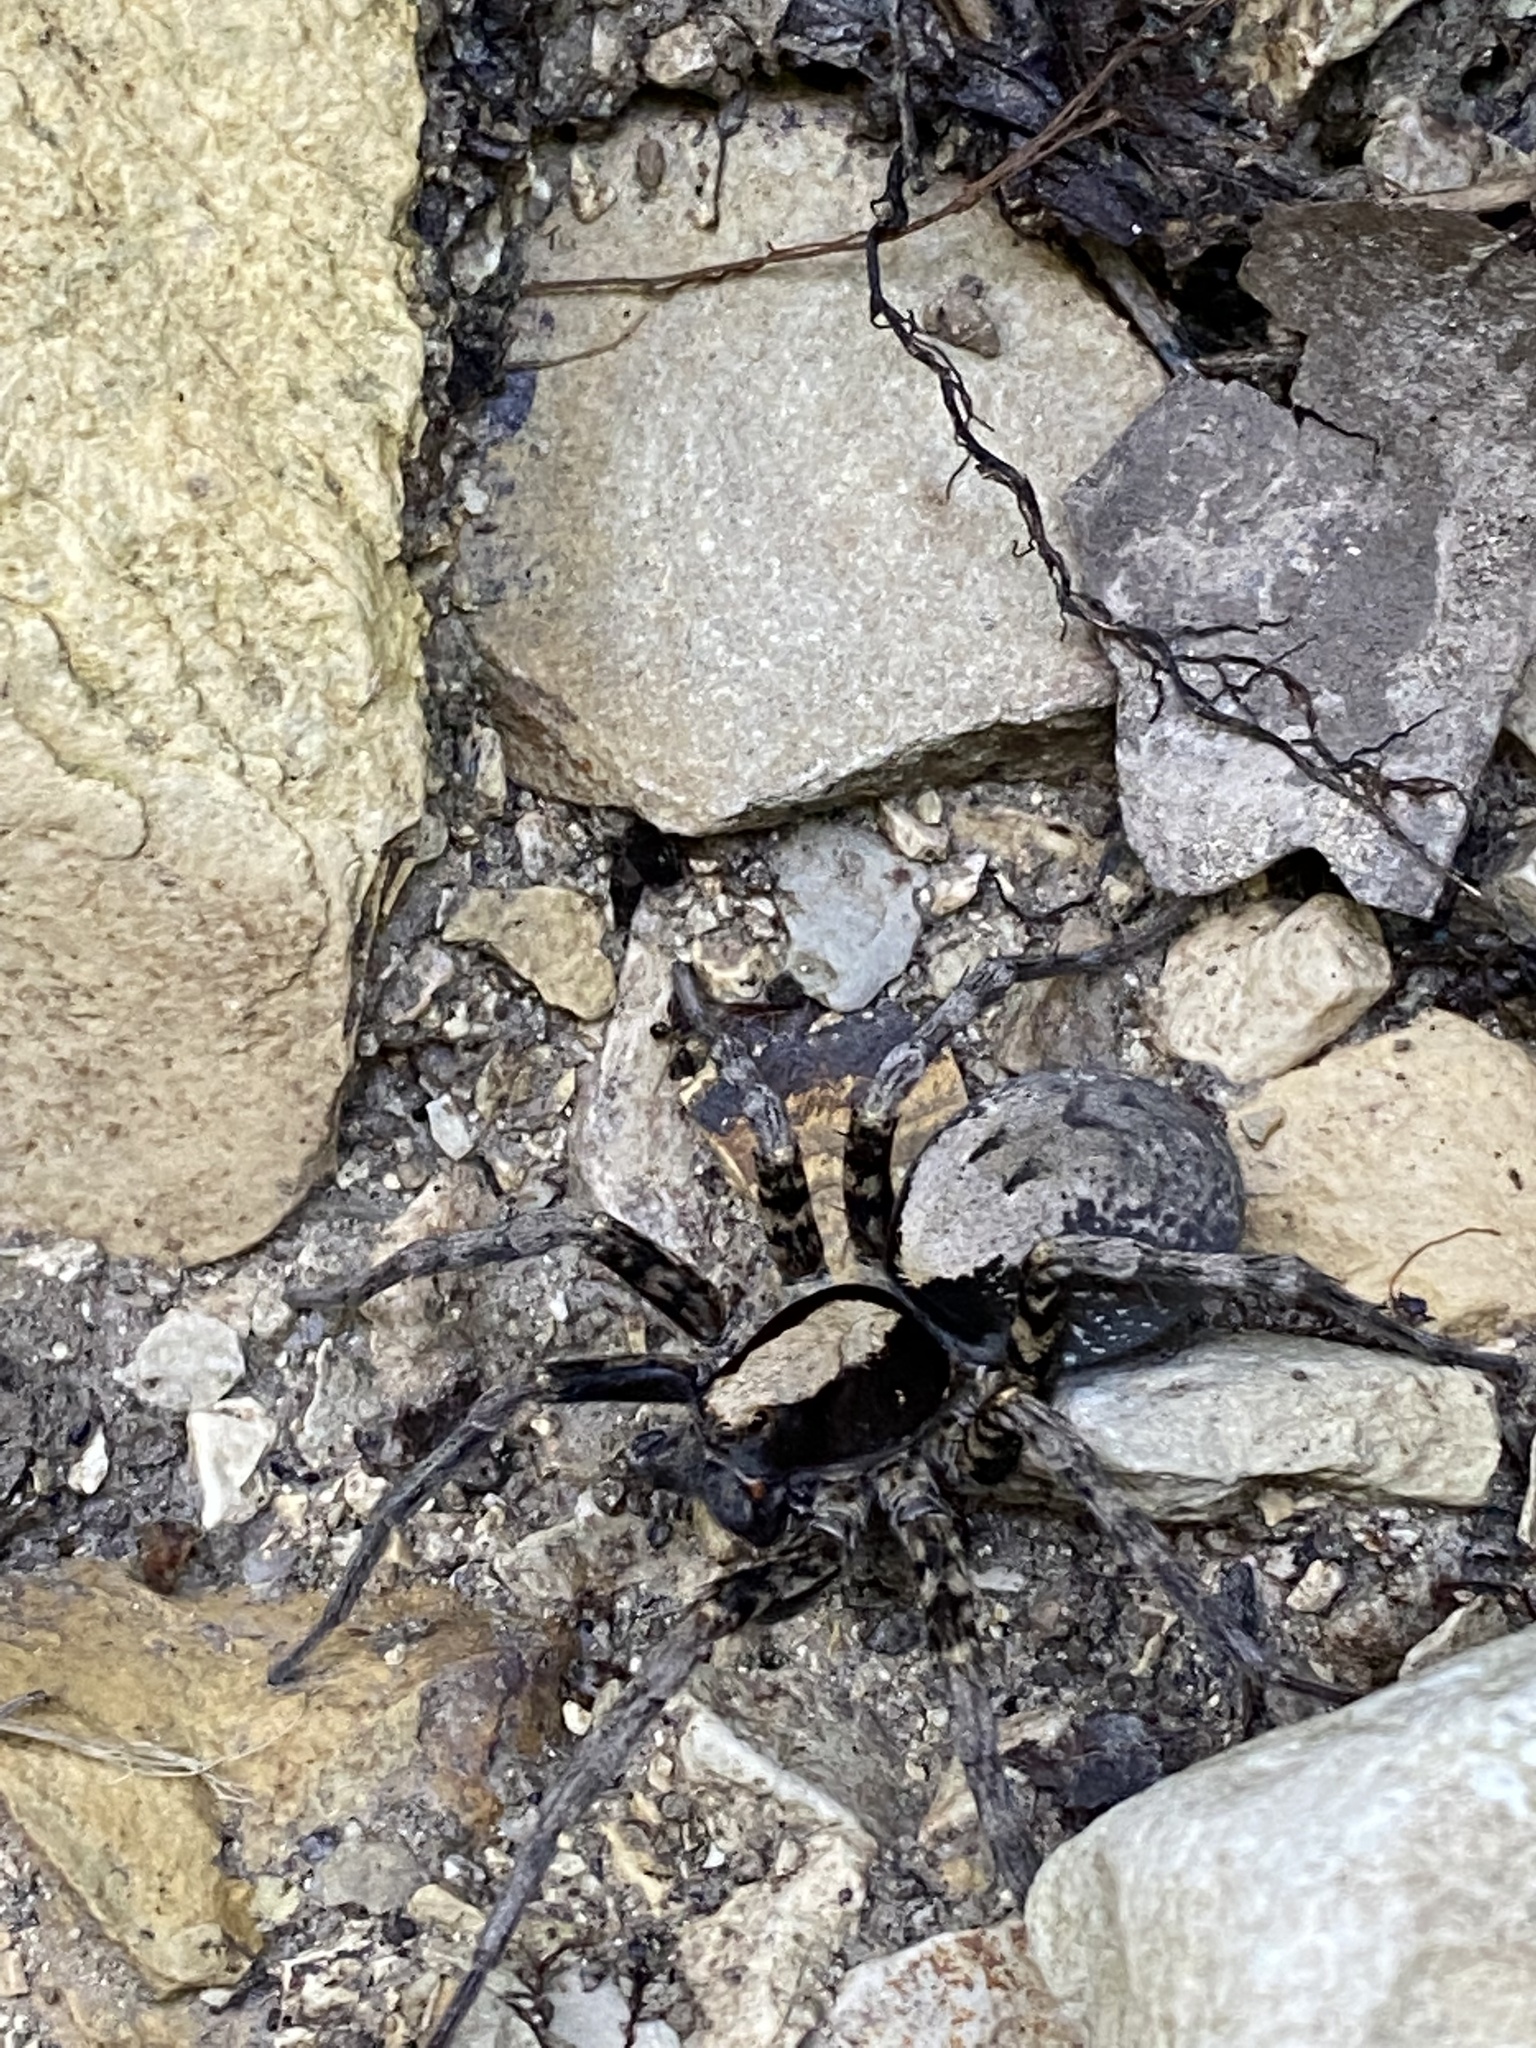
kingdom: Animalia
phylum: Arthropoda
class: Arachnida
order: Araneae
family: Lycosidae
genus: Geolycosa
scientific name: Geolycosa charitonovi
